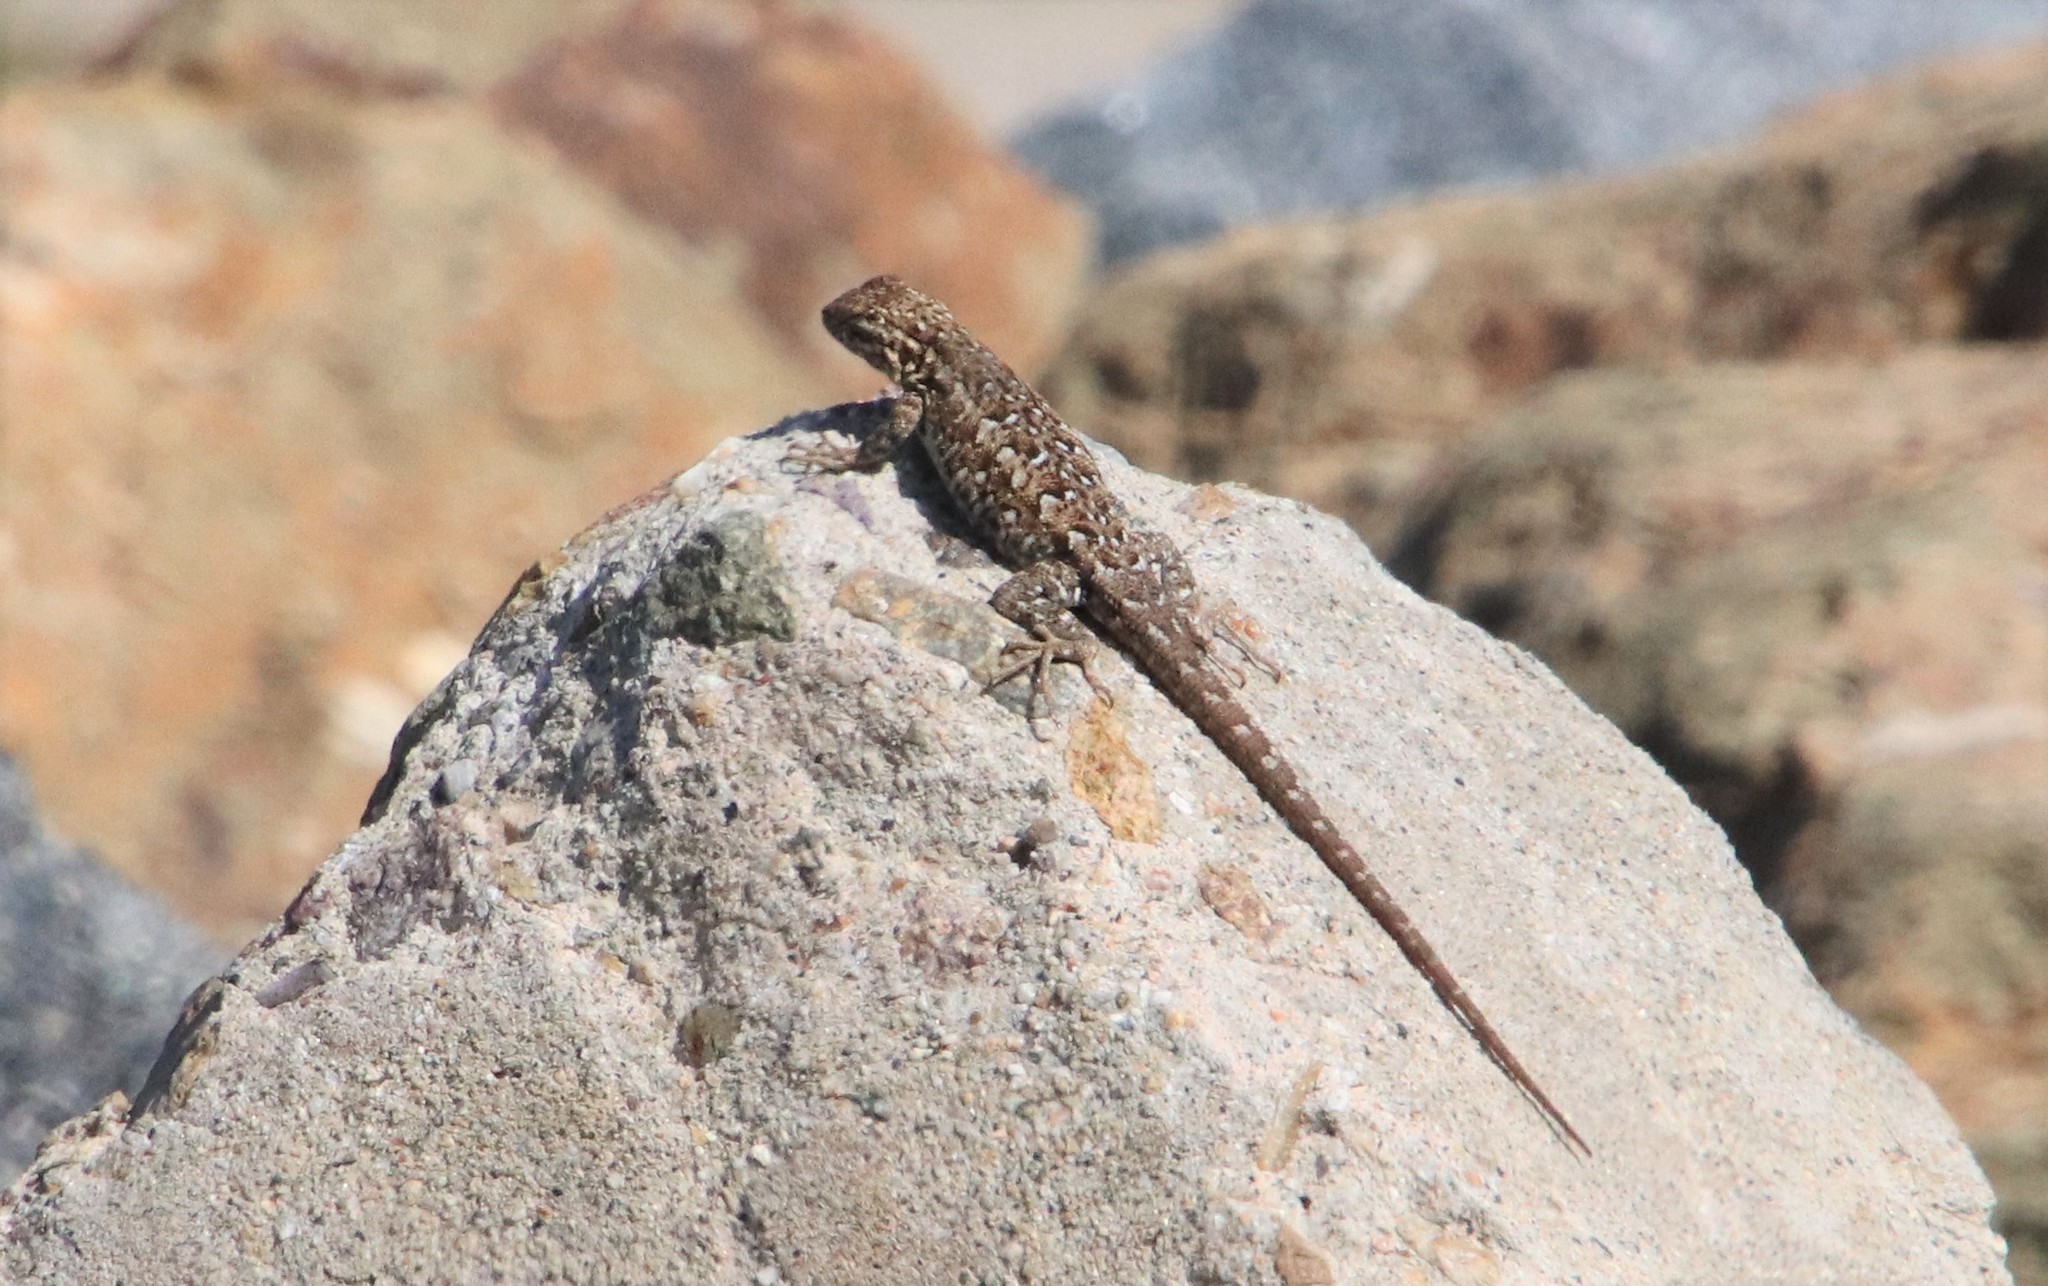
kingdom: Animalia
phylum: Chordata
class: Squamata
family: Phrynosomatidae
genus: Uta
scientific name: Uta stansburiana
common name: Side-blotched lizard
